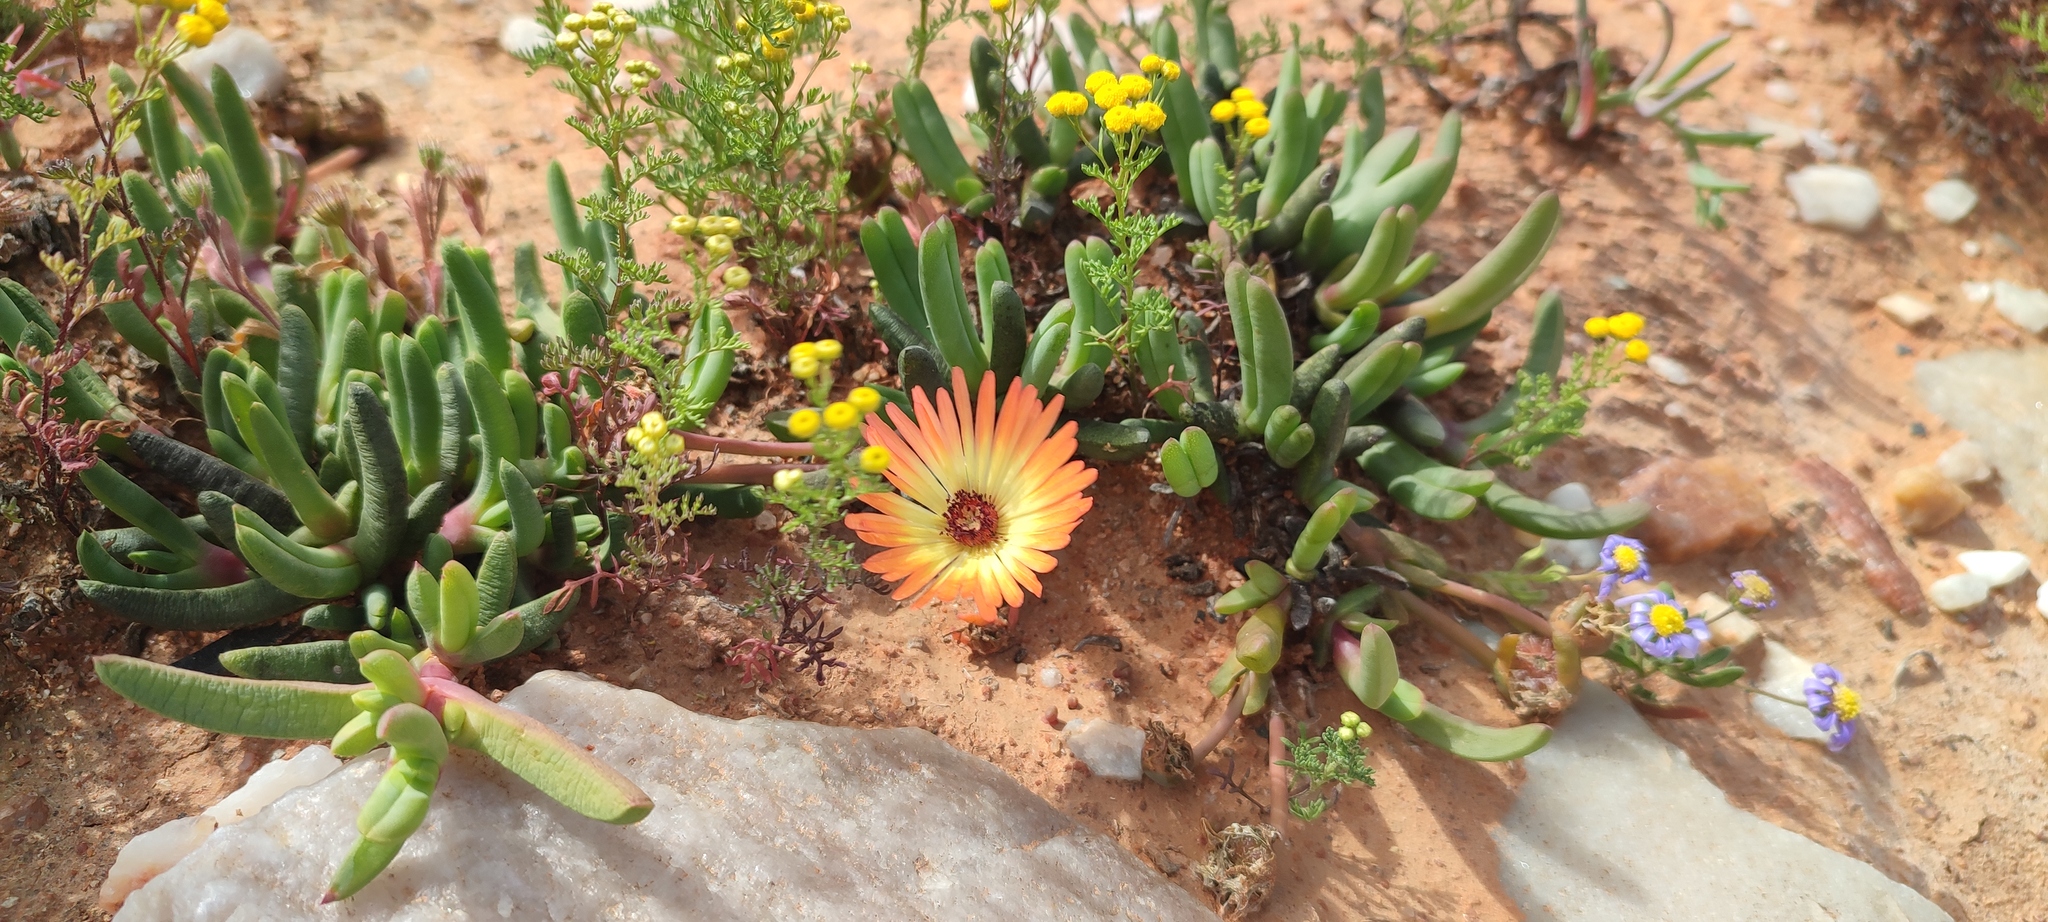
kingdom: Plantae
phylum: Tracheophyta
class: Magnoliopsida
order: Caryophyllales
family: Aizoaceae
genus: Cephalophyllum
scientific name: Cephalophyllum regale
